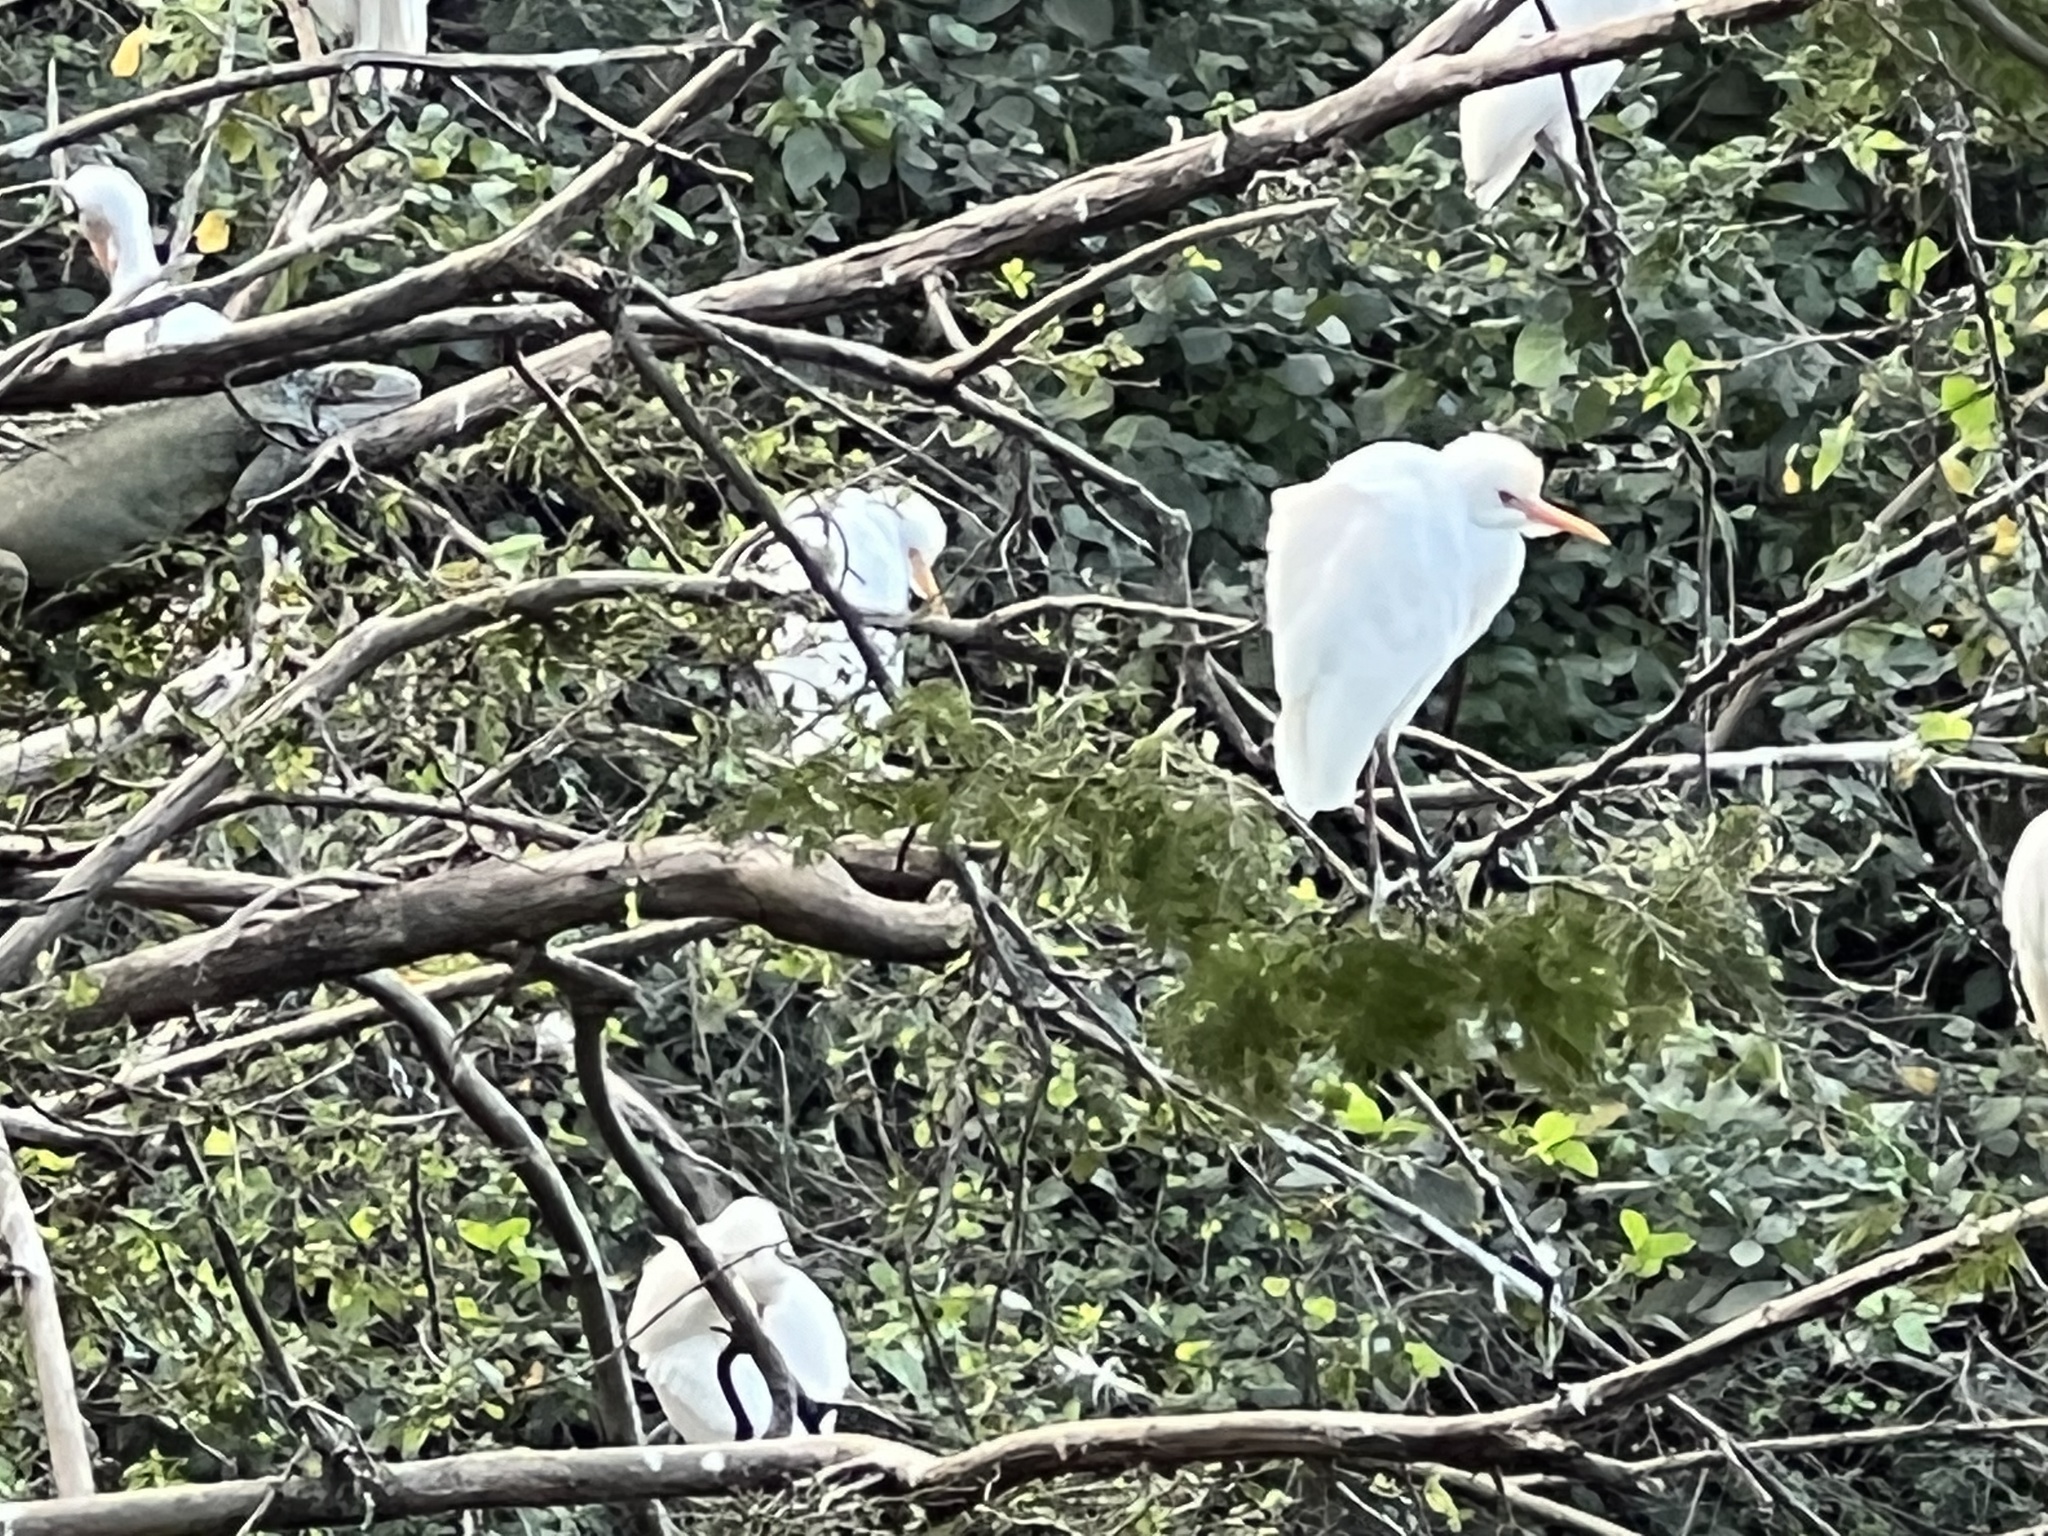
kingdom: Animalia
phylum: Chordata
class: Aves
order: Pelecaniformes
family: Ardeidae
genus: Bubulcus
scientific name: Bubulcus ibis
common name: Cattle egret
